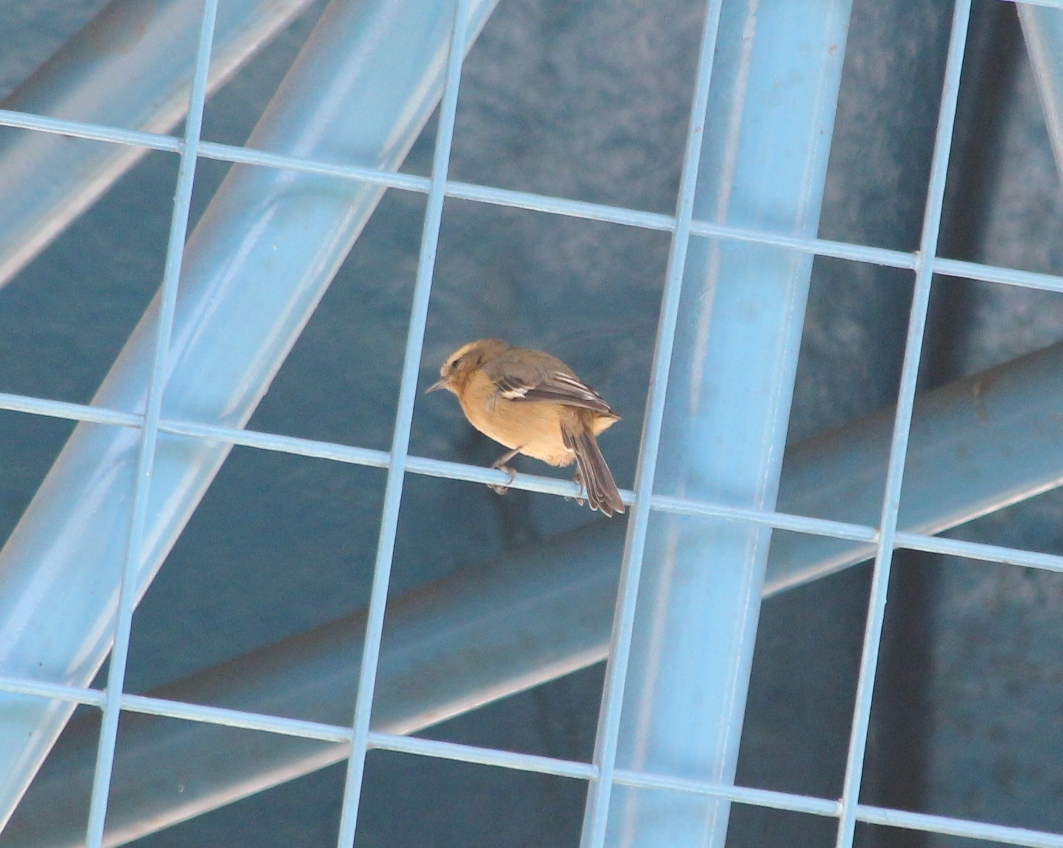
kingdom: Animalia
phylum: Chordata
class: Aves
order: Passeriformes
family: Thraupidae
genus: Conirostrum
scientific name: Conirostrum cinereum
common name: Cinereous conebill
